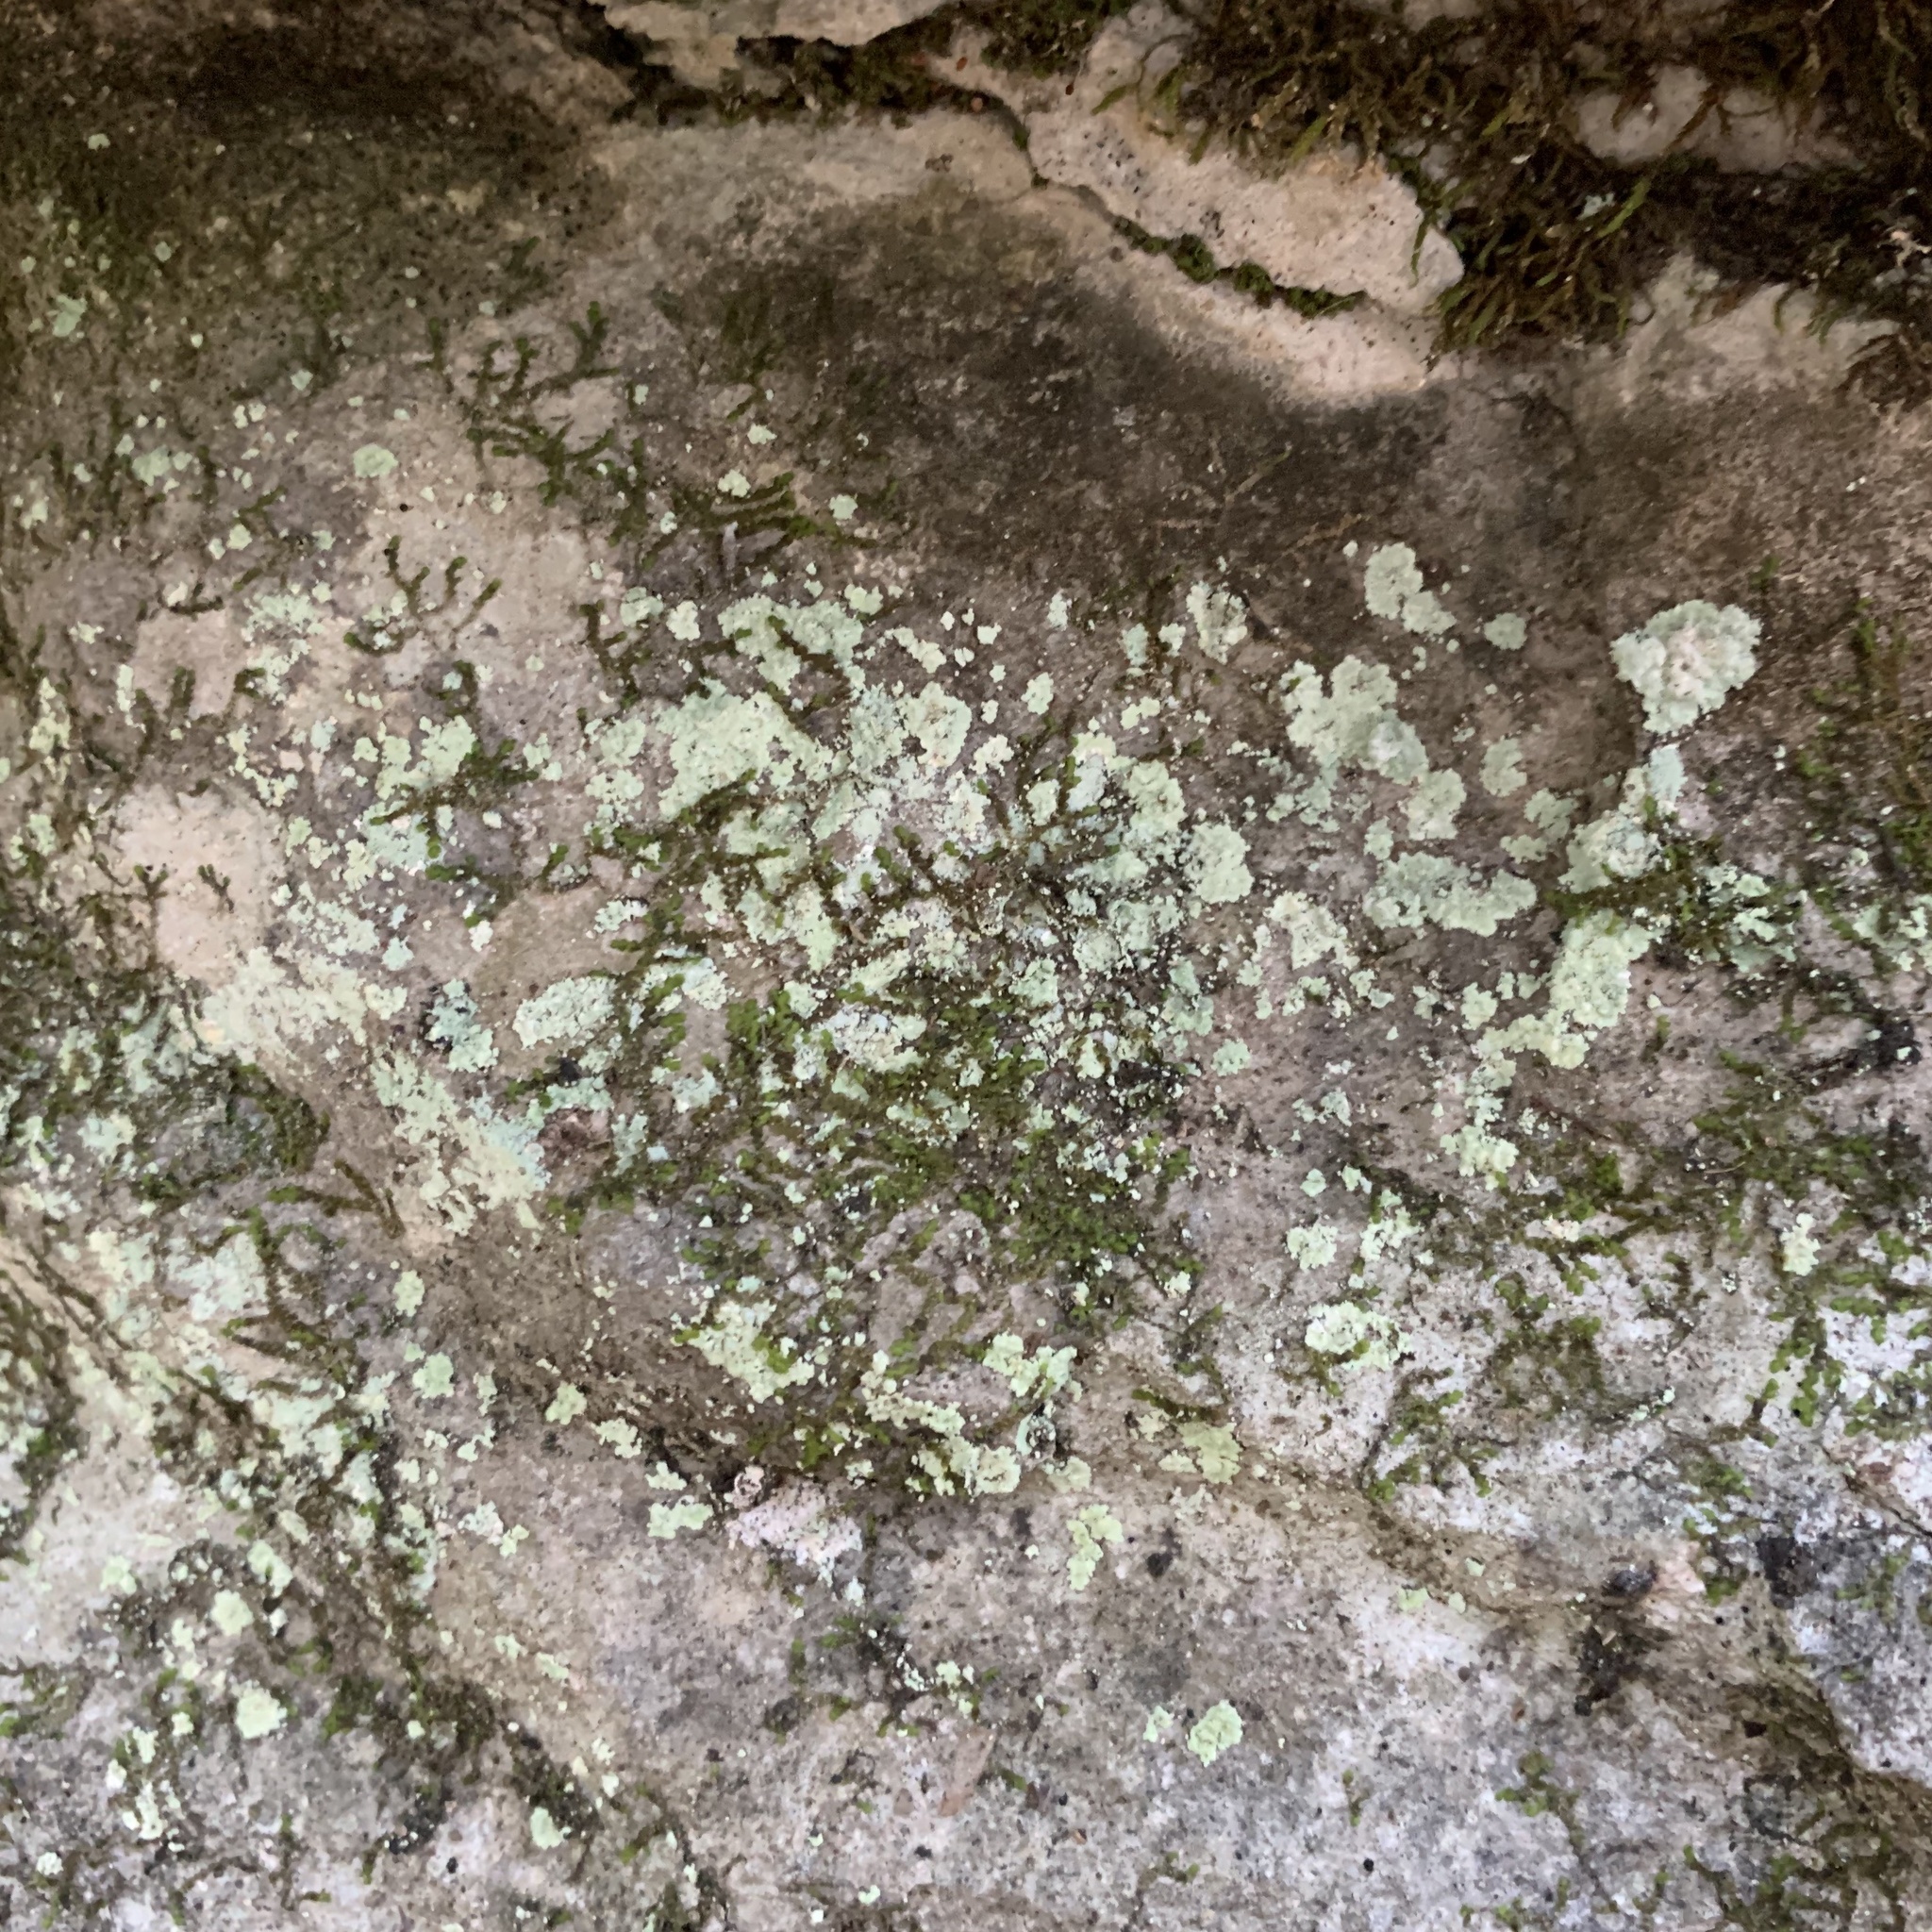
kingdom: Fungi
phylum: Ascomycota
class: Lecanoromycetes
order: Lecanorales
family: Stereocaulaceae
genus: Lepraria
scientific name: Lepraria lobificans
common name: Fluffy dust lichen
